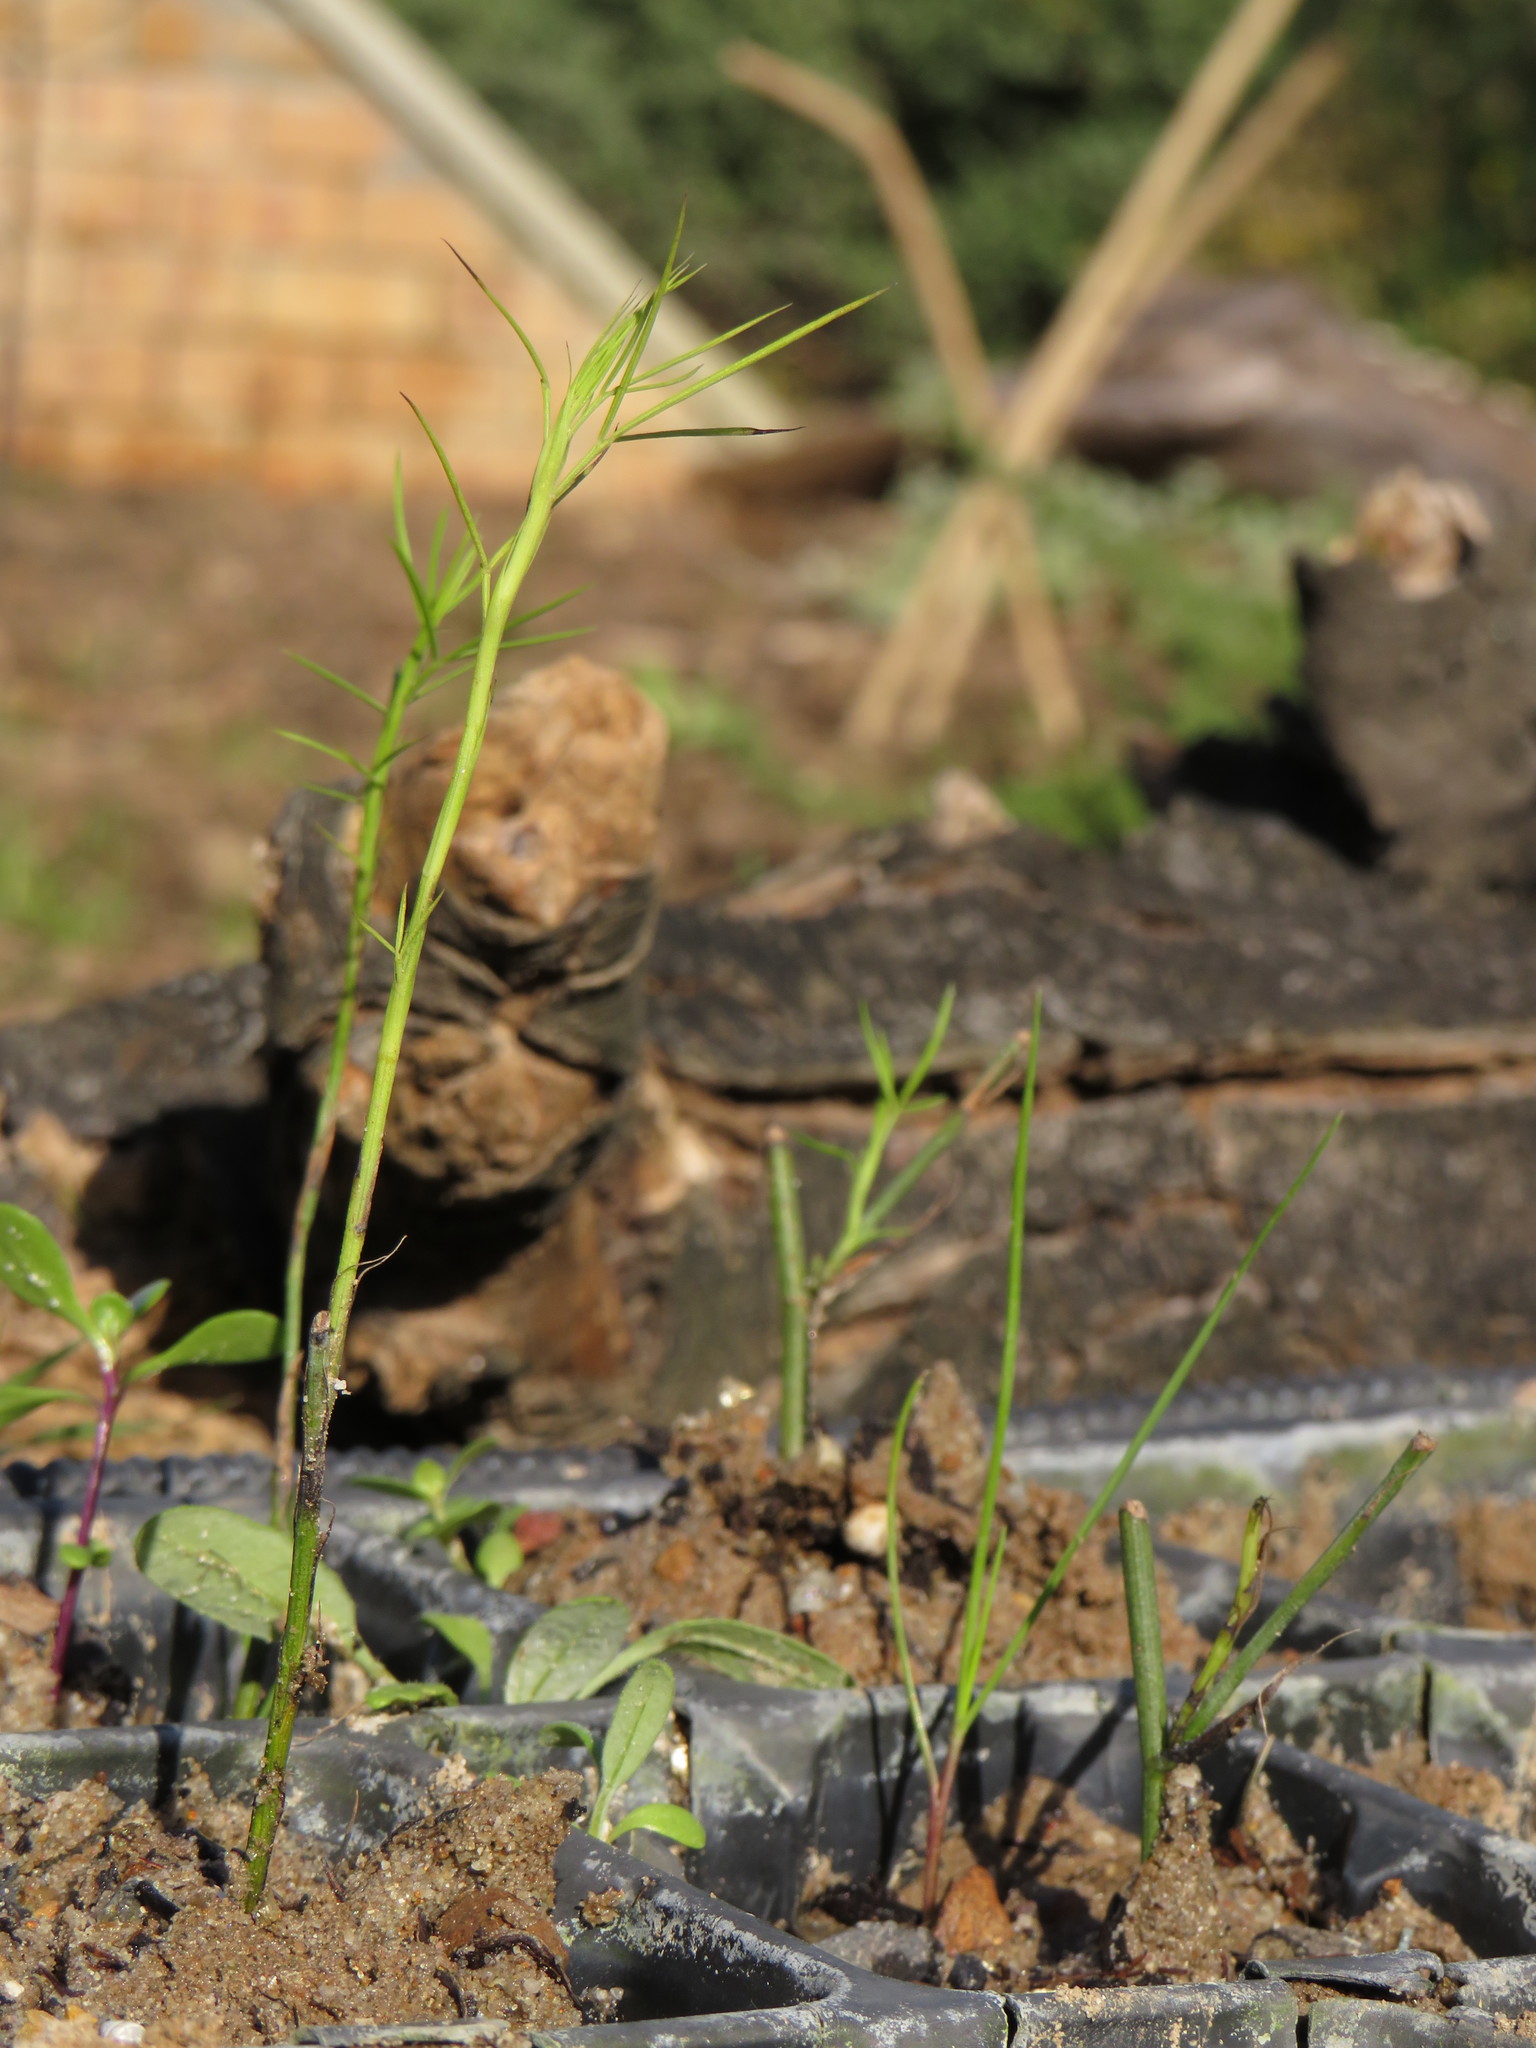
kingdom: Plantae
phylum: Tracheophyta
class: Magnoliopsida
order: Fabales
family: Fabaceae
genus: Psoralea
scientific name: Psoralea fascicularis
